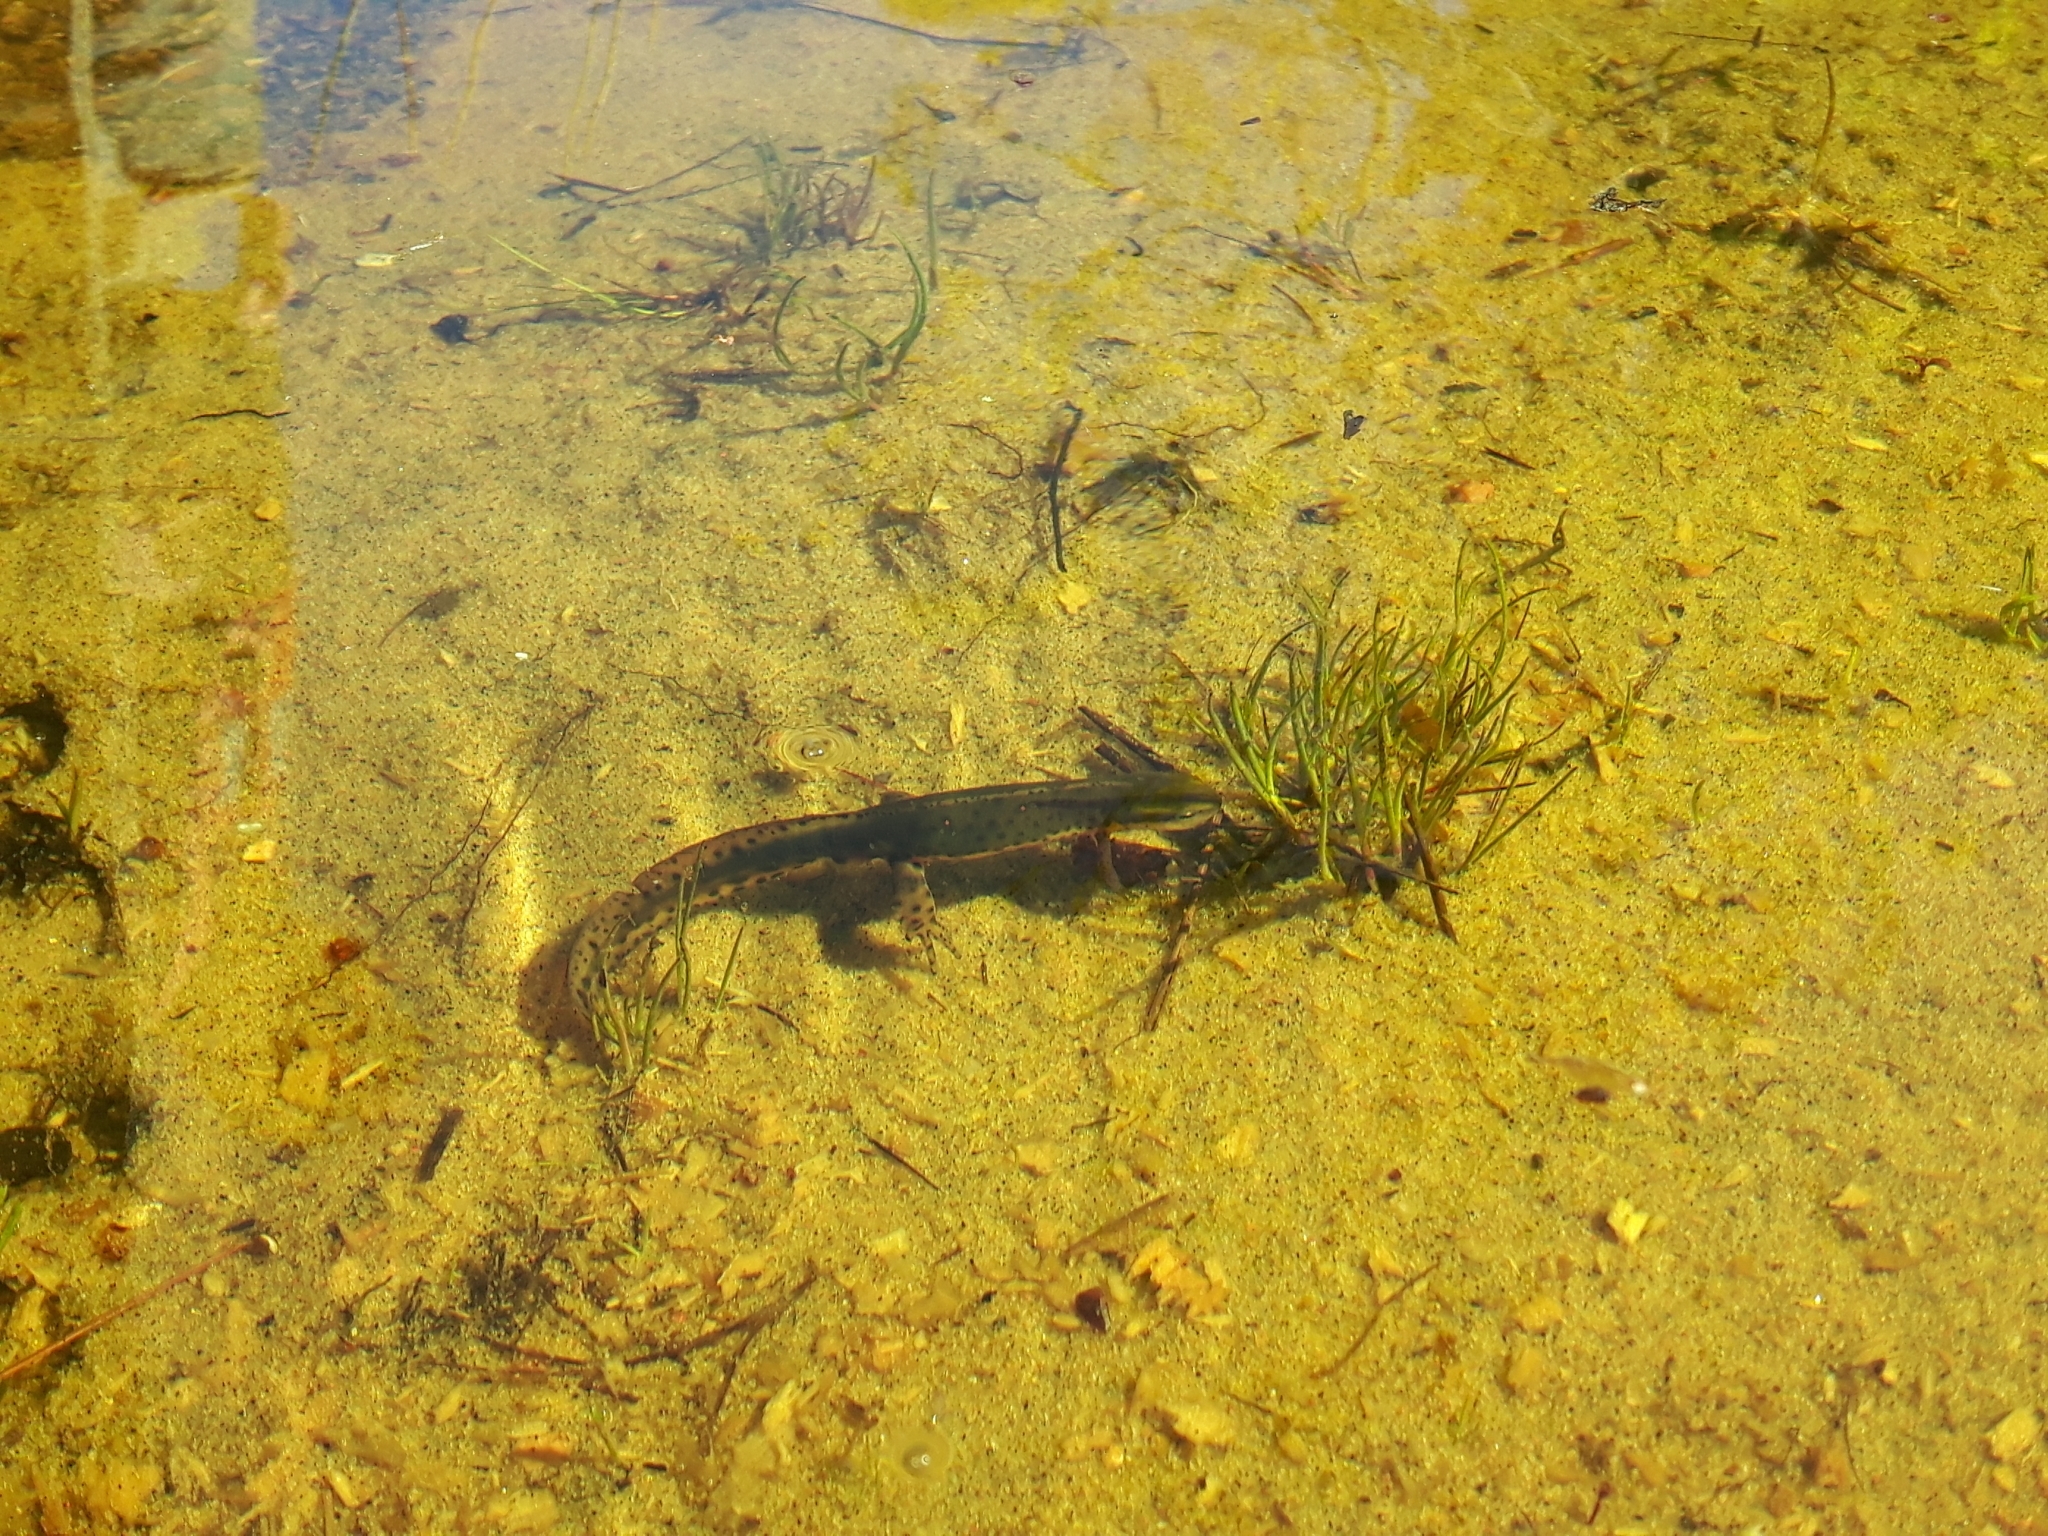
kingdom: Animalia
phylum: Chordata
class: Amphibia
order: Caudata
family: Salamandridae
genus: Notophthalmus
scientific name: Notophthalmus viridescens
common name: Eastern newt
